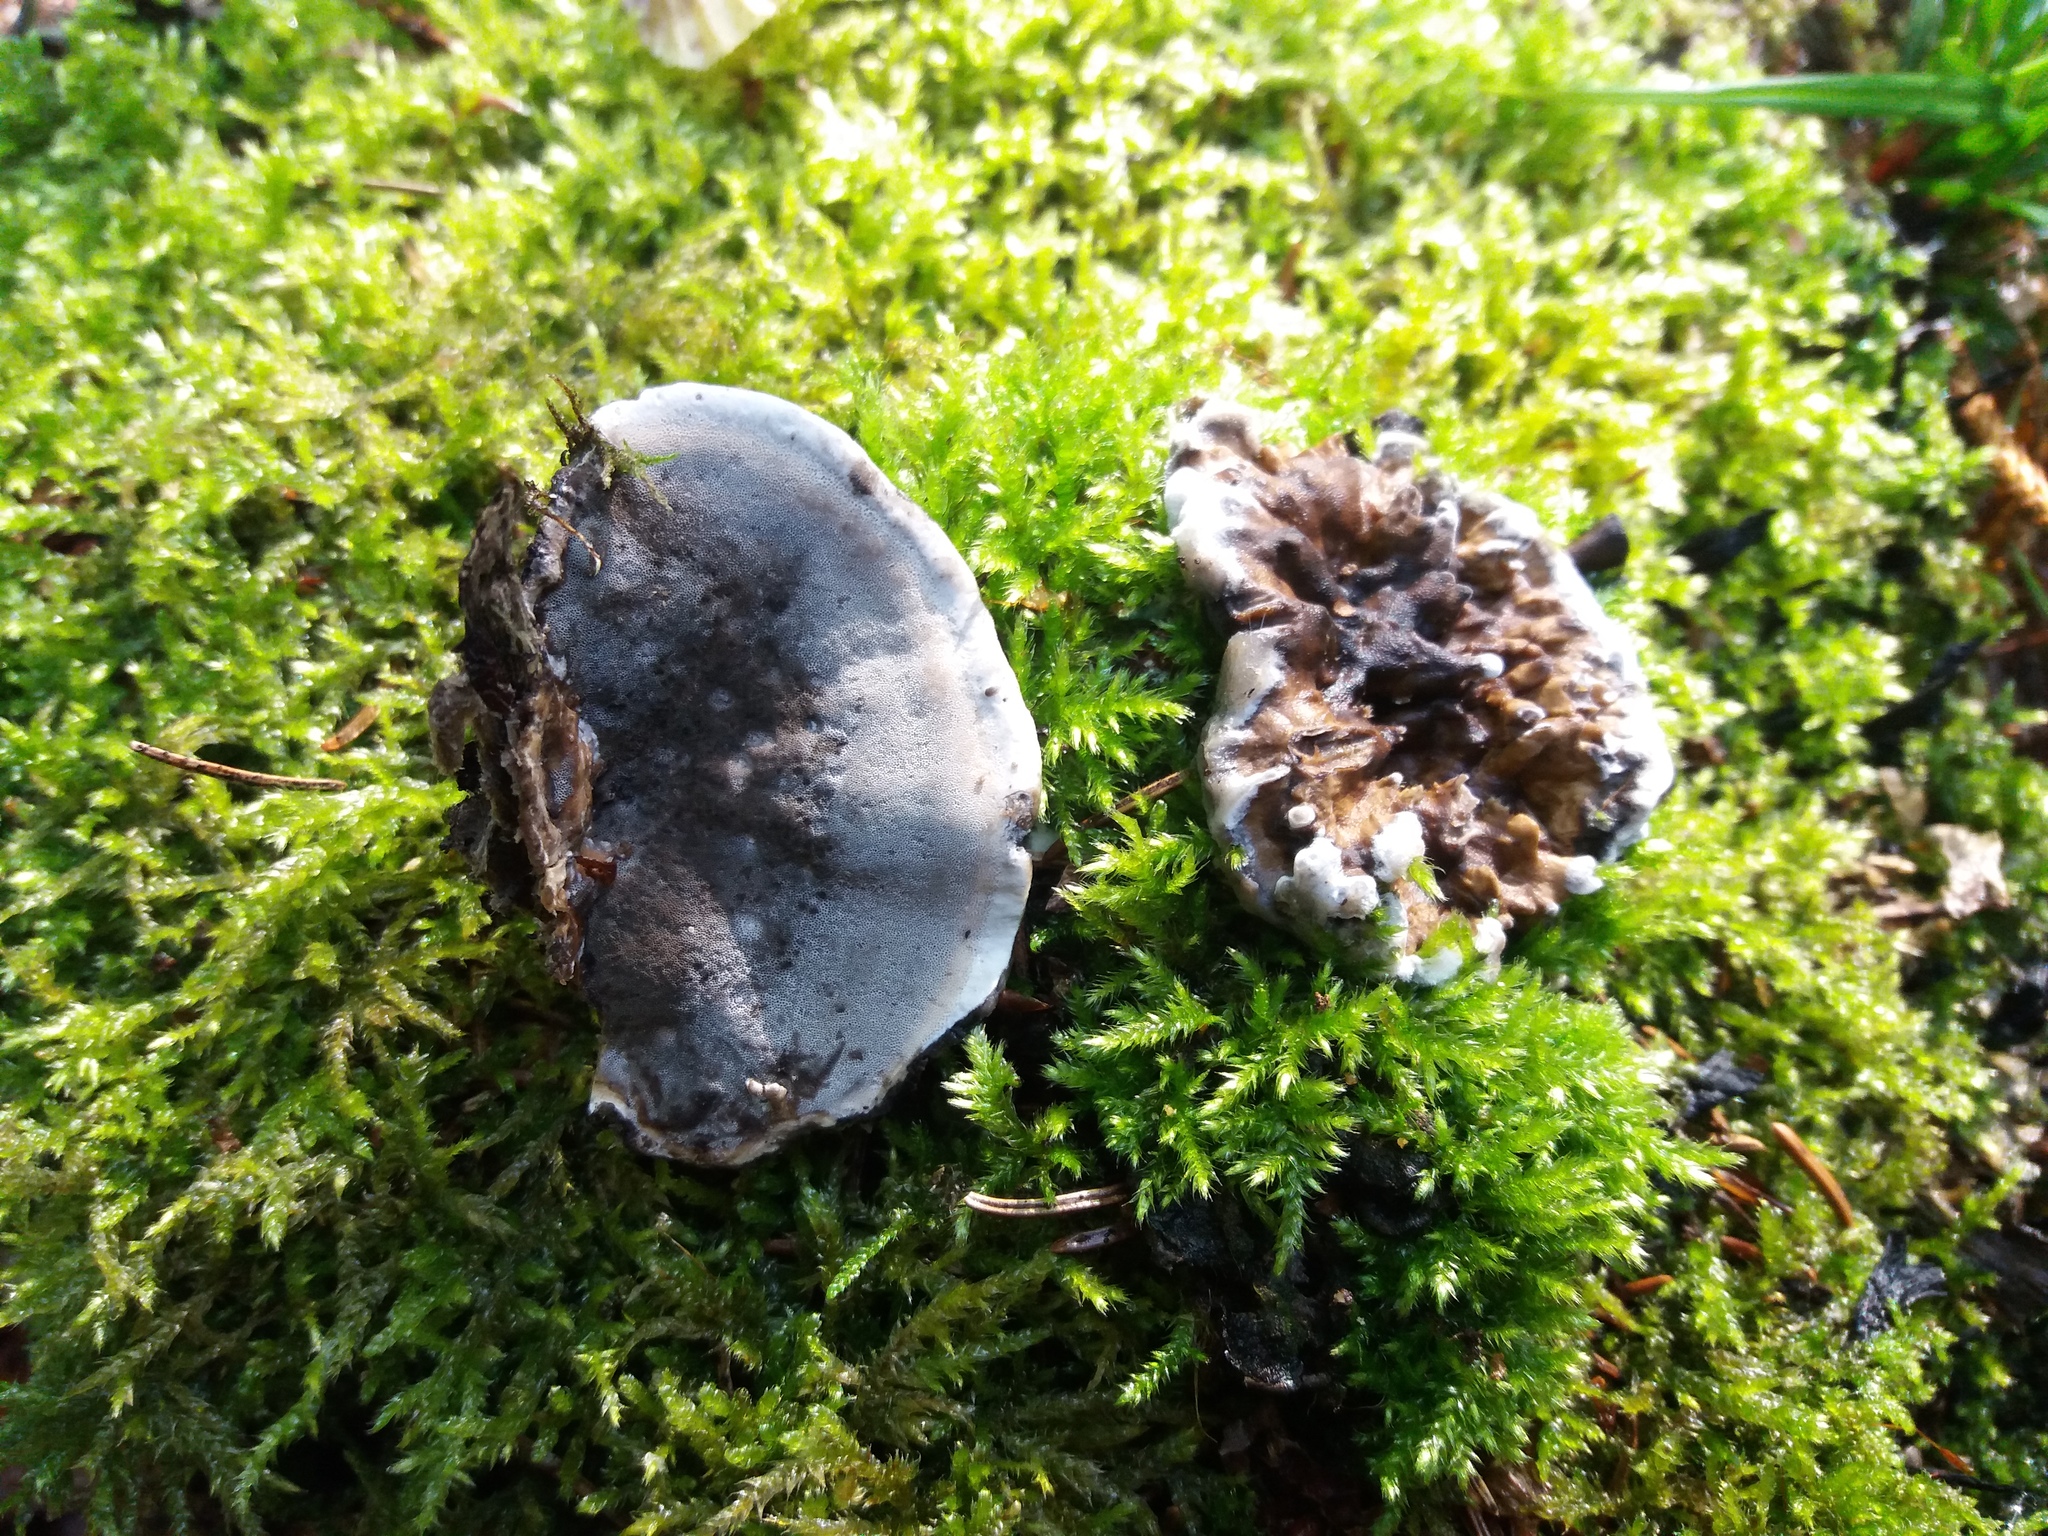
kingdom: Fungi
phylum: Basidiomycota
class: Agaricomycetes
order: Polyporales
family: Phanerochaetaceae
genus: Bjerkandera
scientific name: Bjerkandera adusta
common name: Smoky bracket
